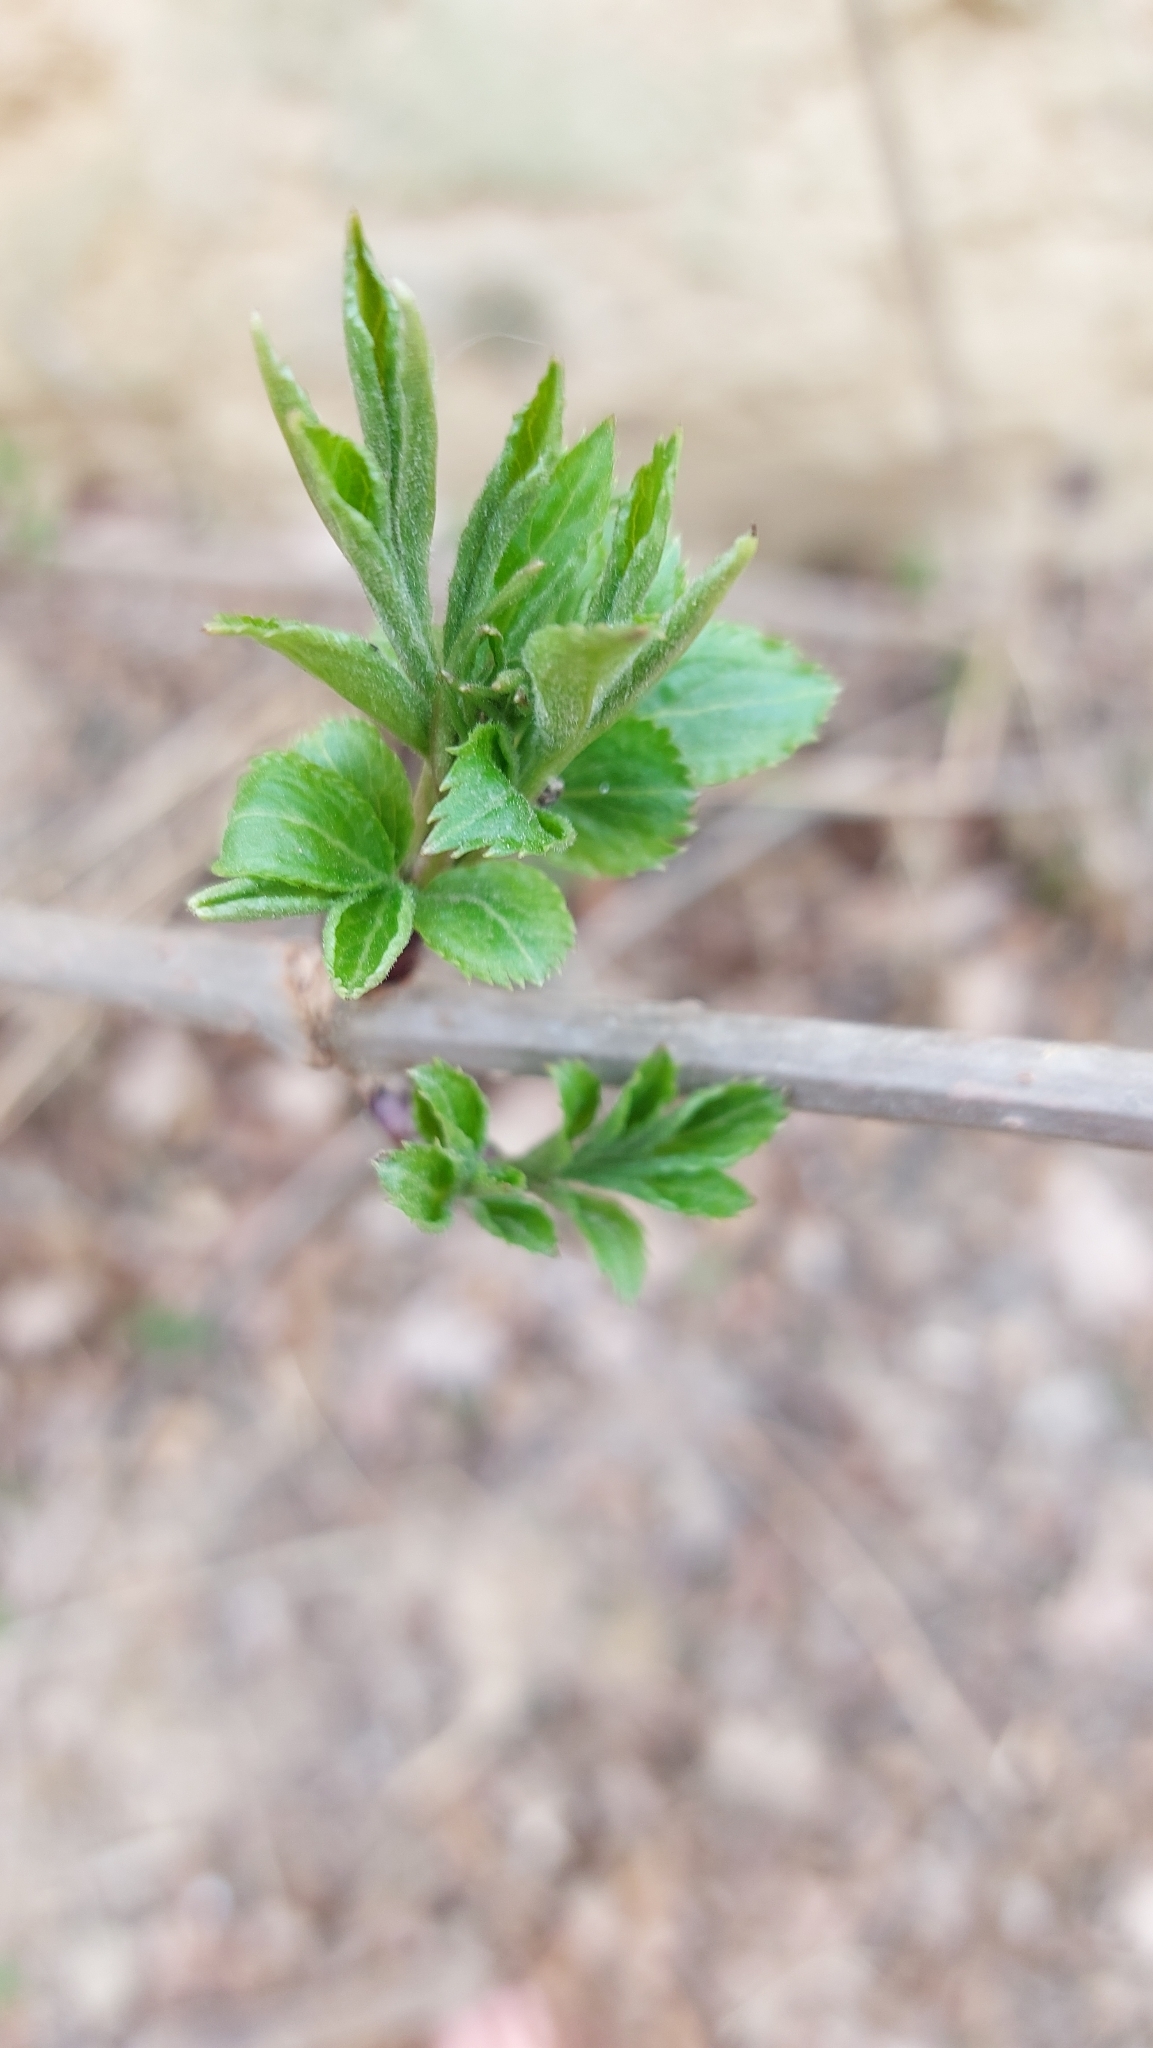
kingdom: Plantae
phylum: Tracheophyta
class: Magnoliopsida
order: Dipsacales
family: Viburnaceae
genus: Sambucus
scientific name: Sambucus nigra
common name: Elder
